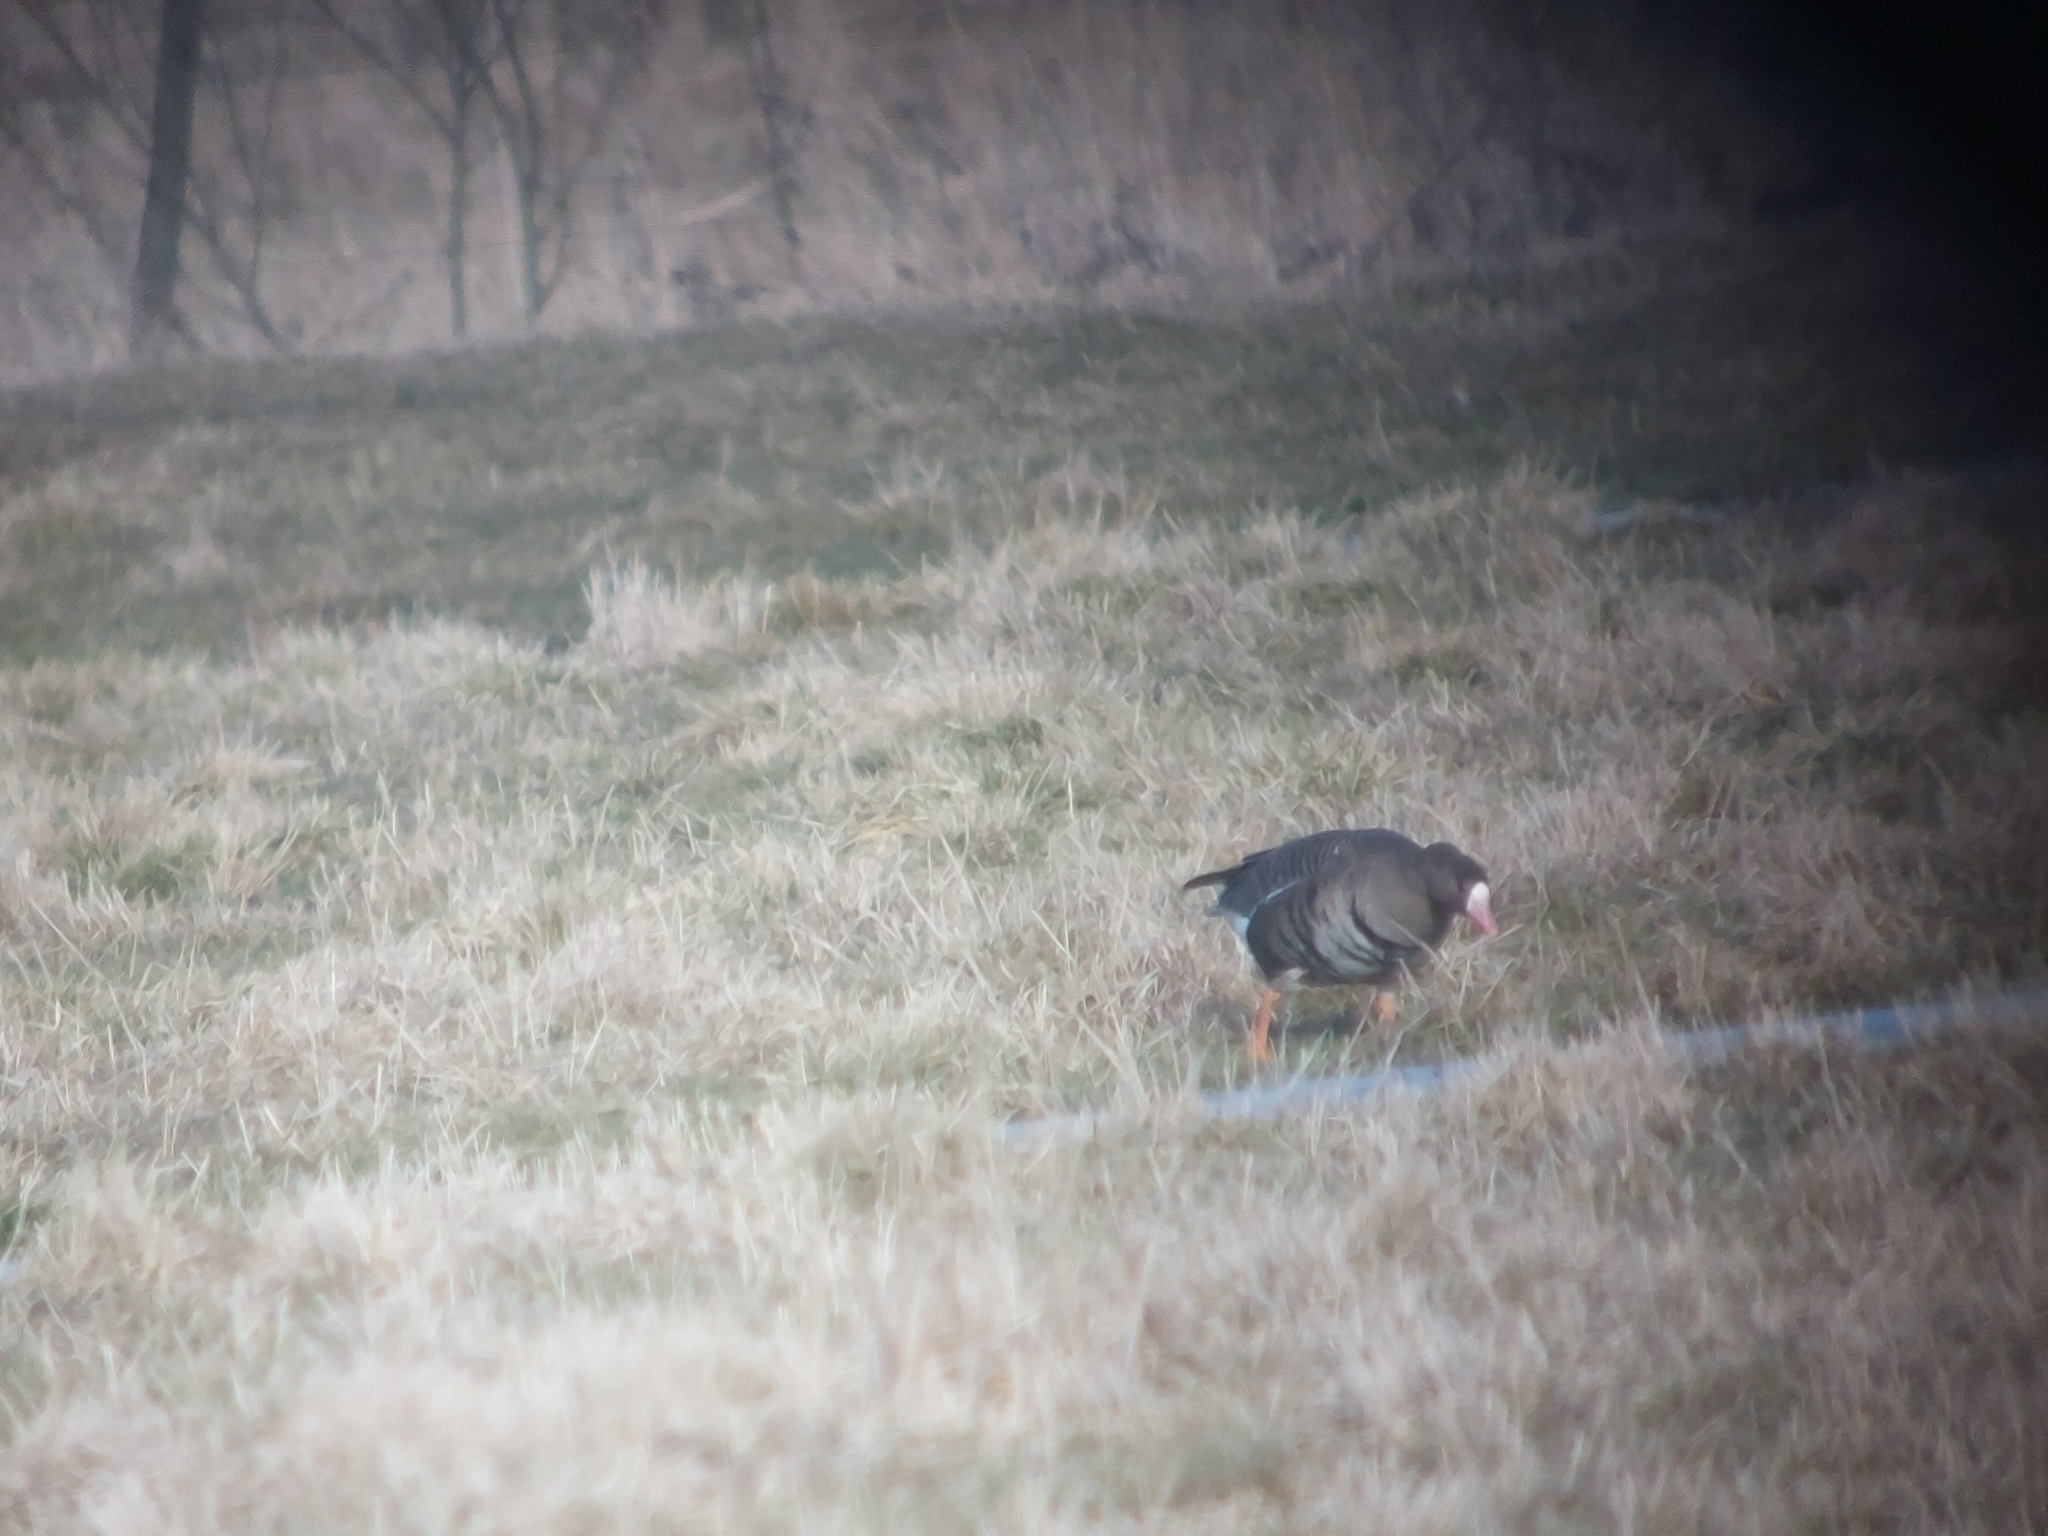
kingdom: Animalia
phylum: Chordata
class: Aves
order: Anseriformes
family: Anatidae
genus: Anser
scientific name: Anser albifrons
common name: Greater white-fronted goose
